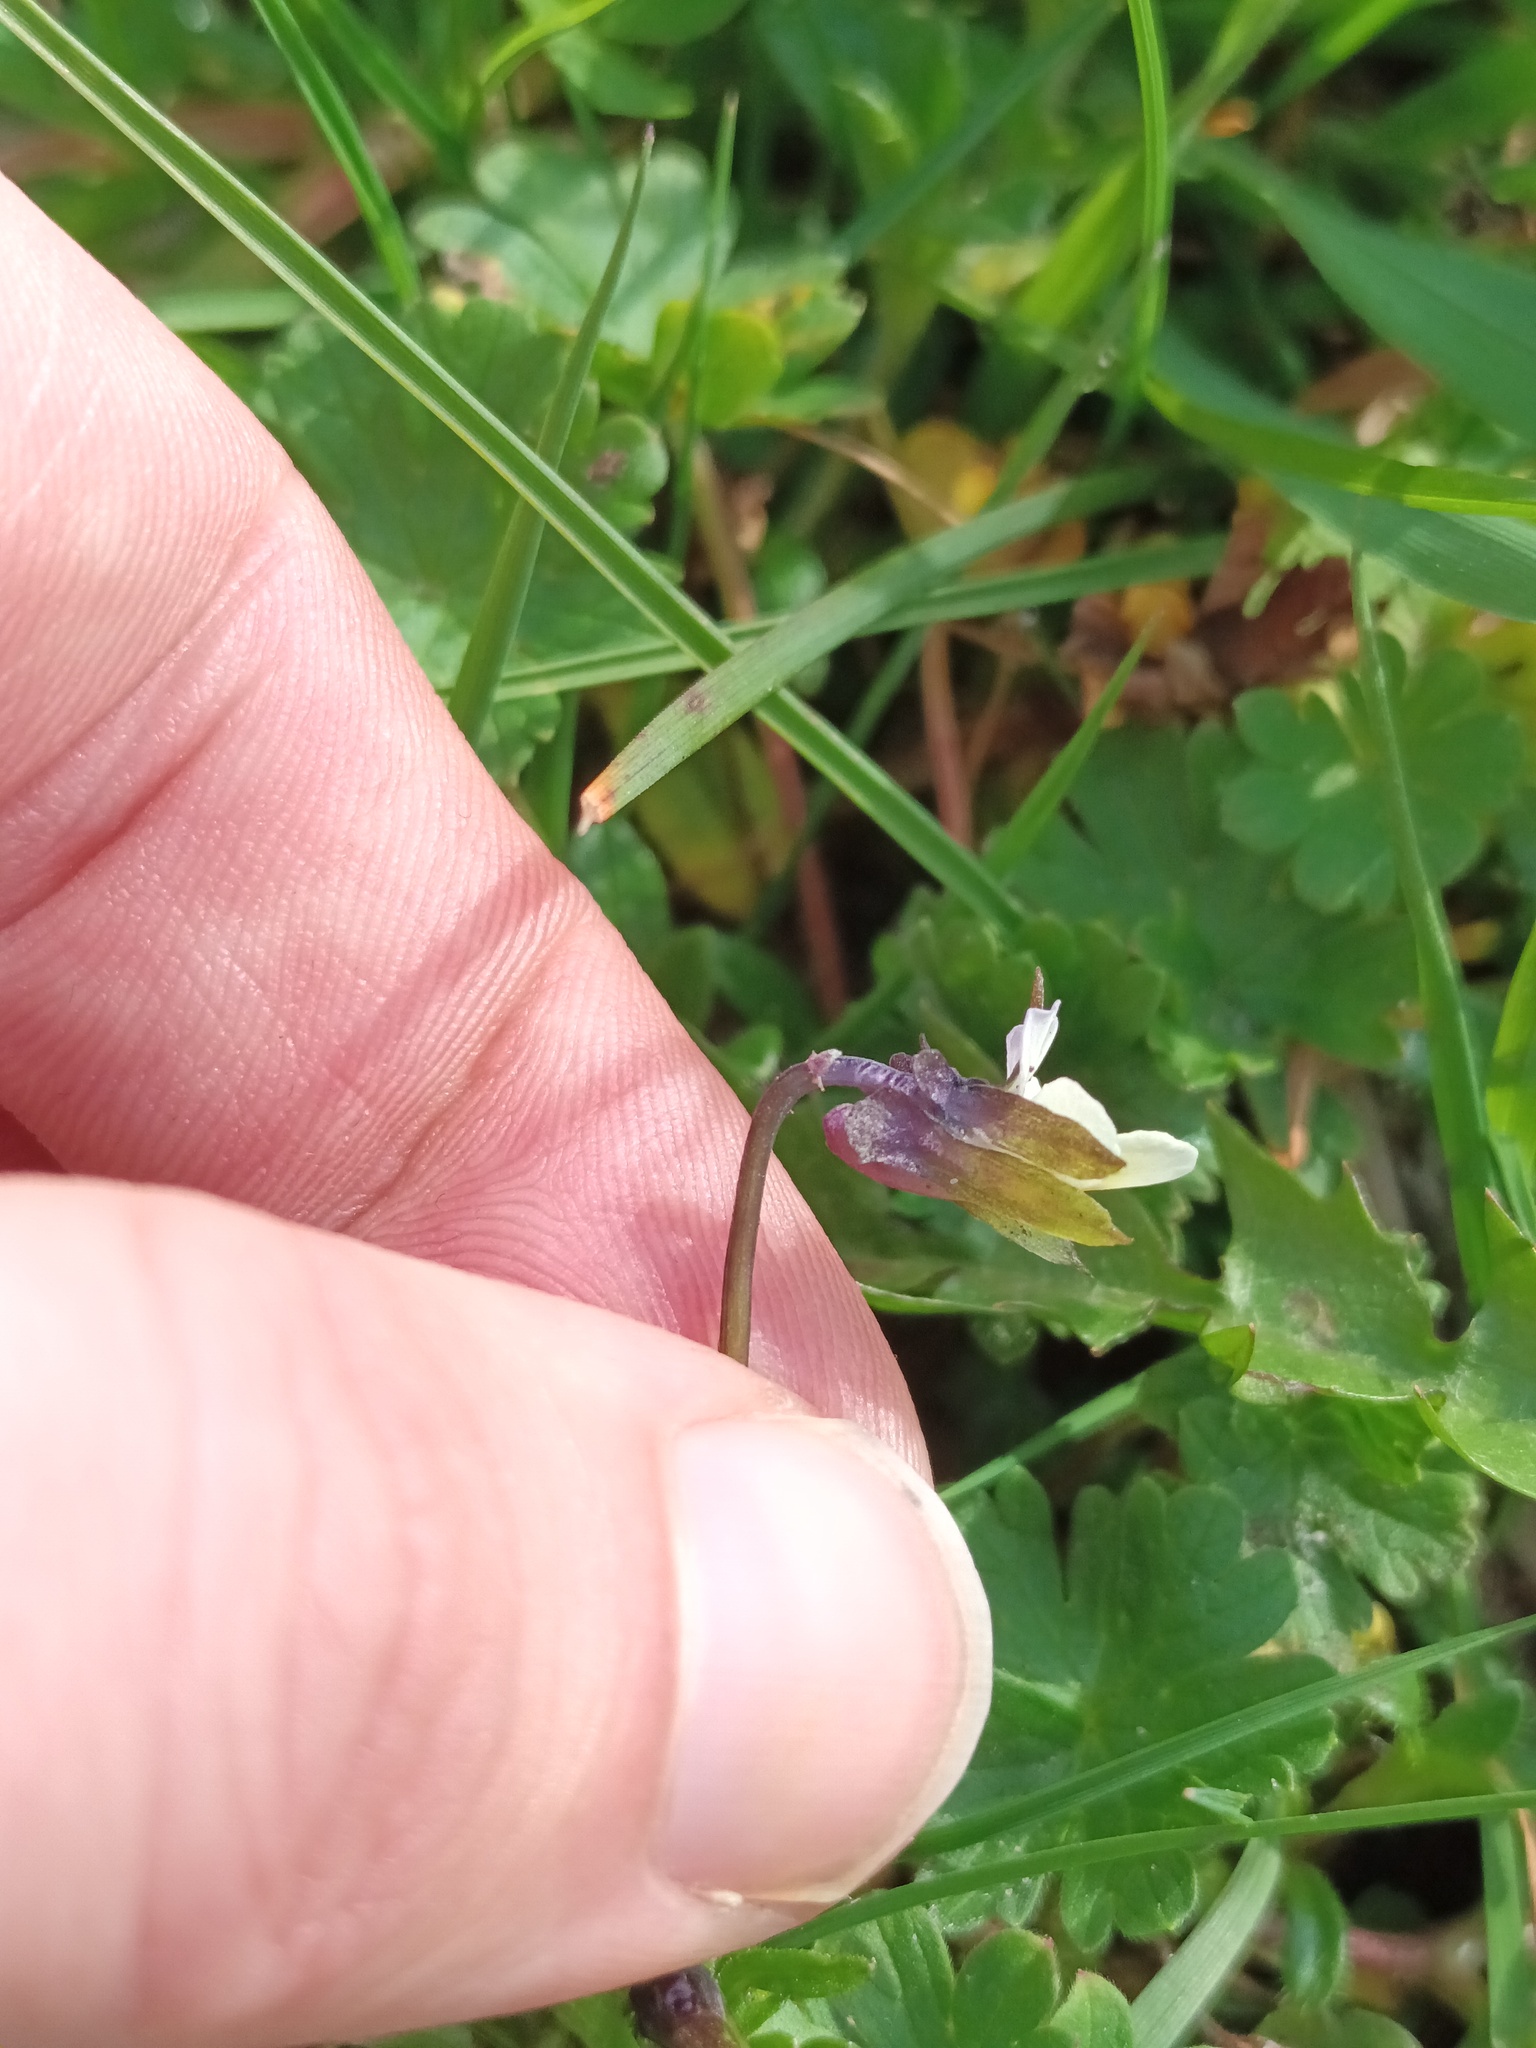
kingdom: Plantae
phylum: Tracheophyta
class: Magnoliopsida
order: Malpighiales
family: Violaceae
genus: Viola
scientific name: Viola arvensis
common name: Field pansy
